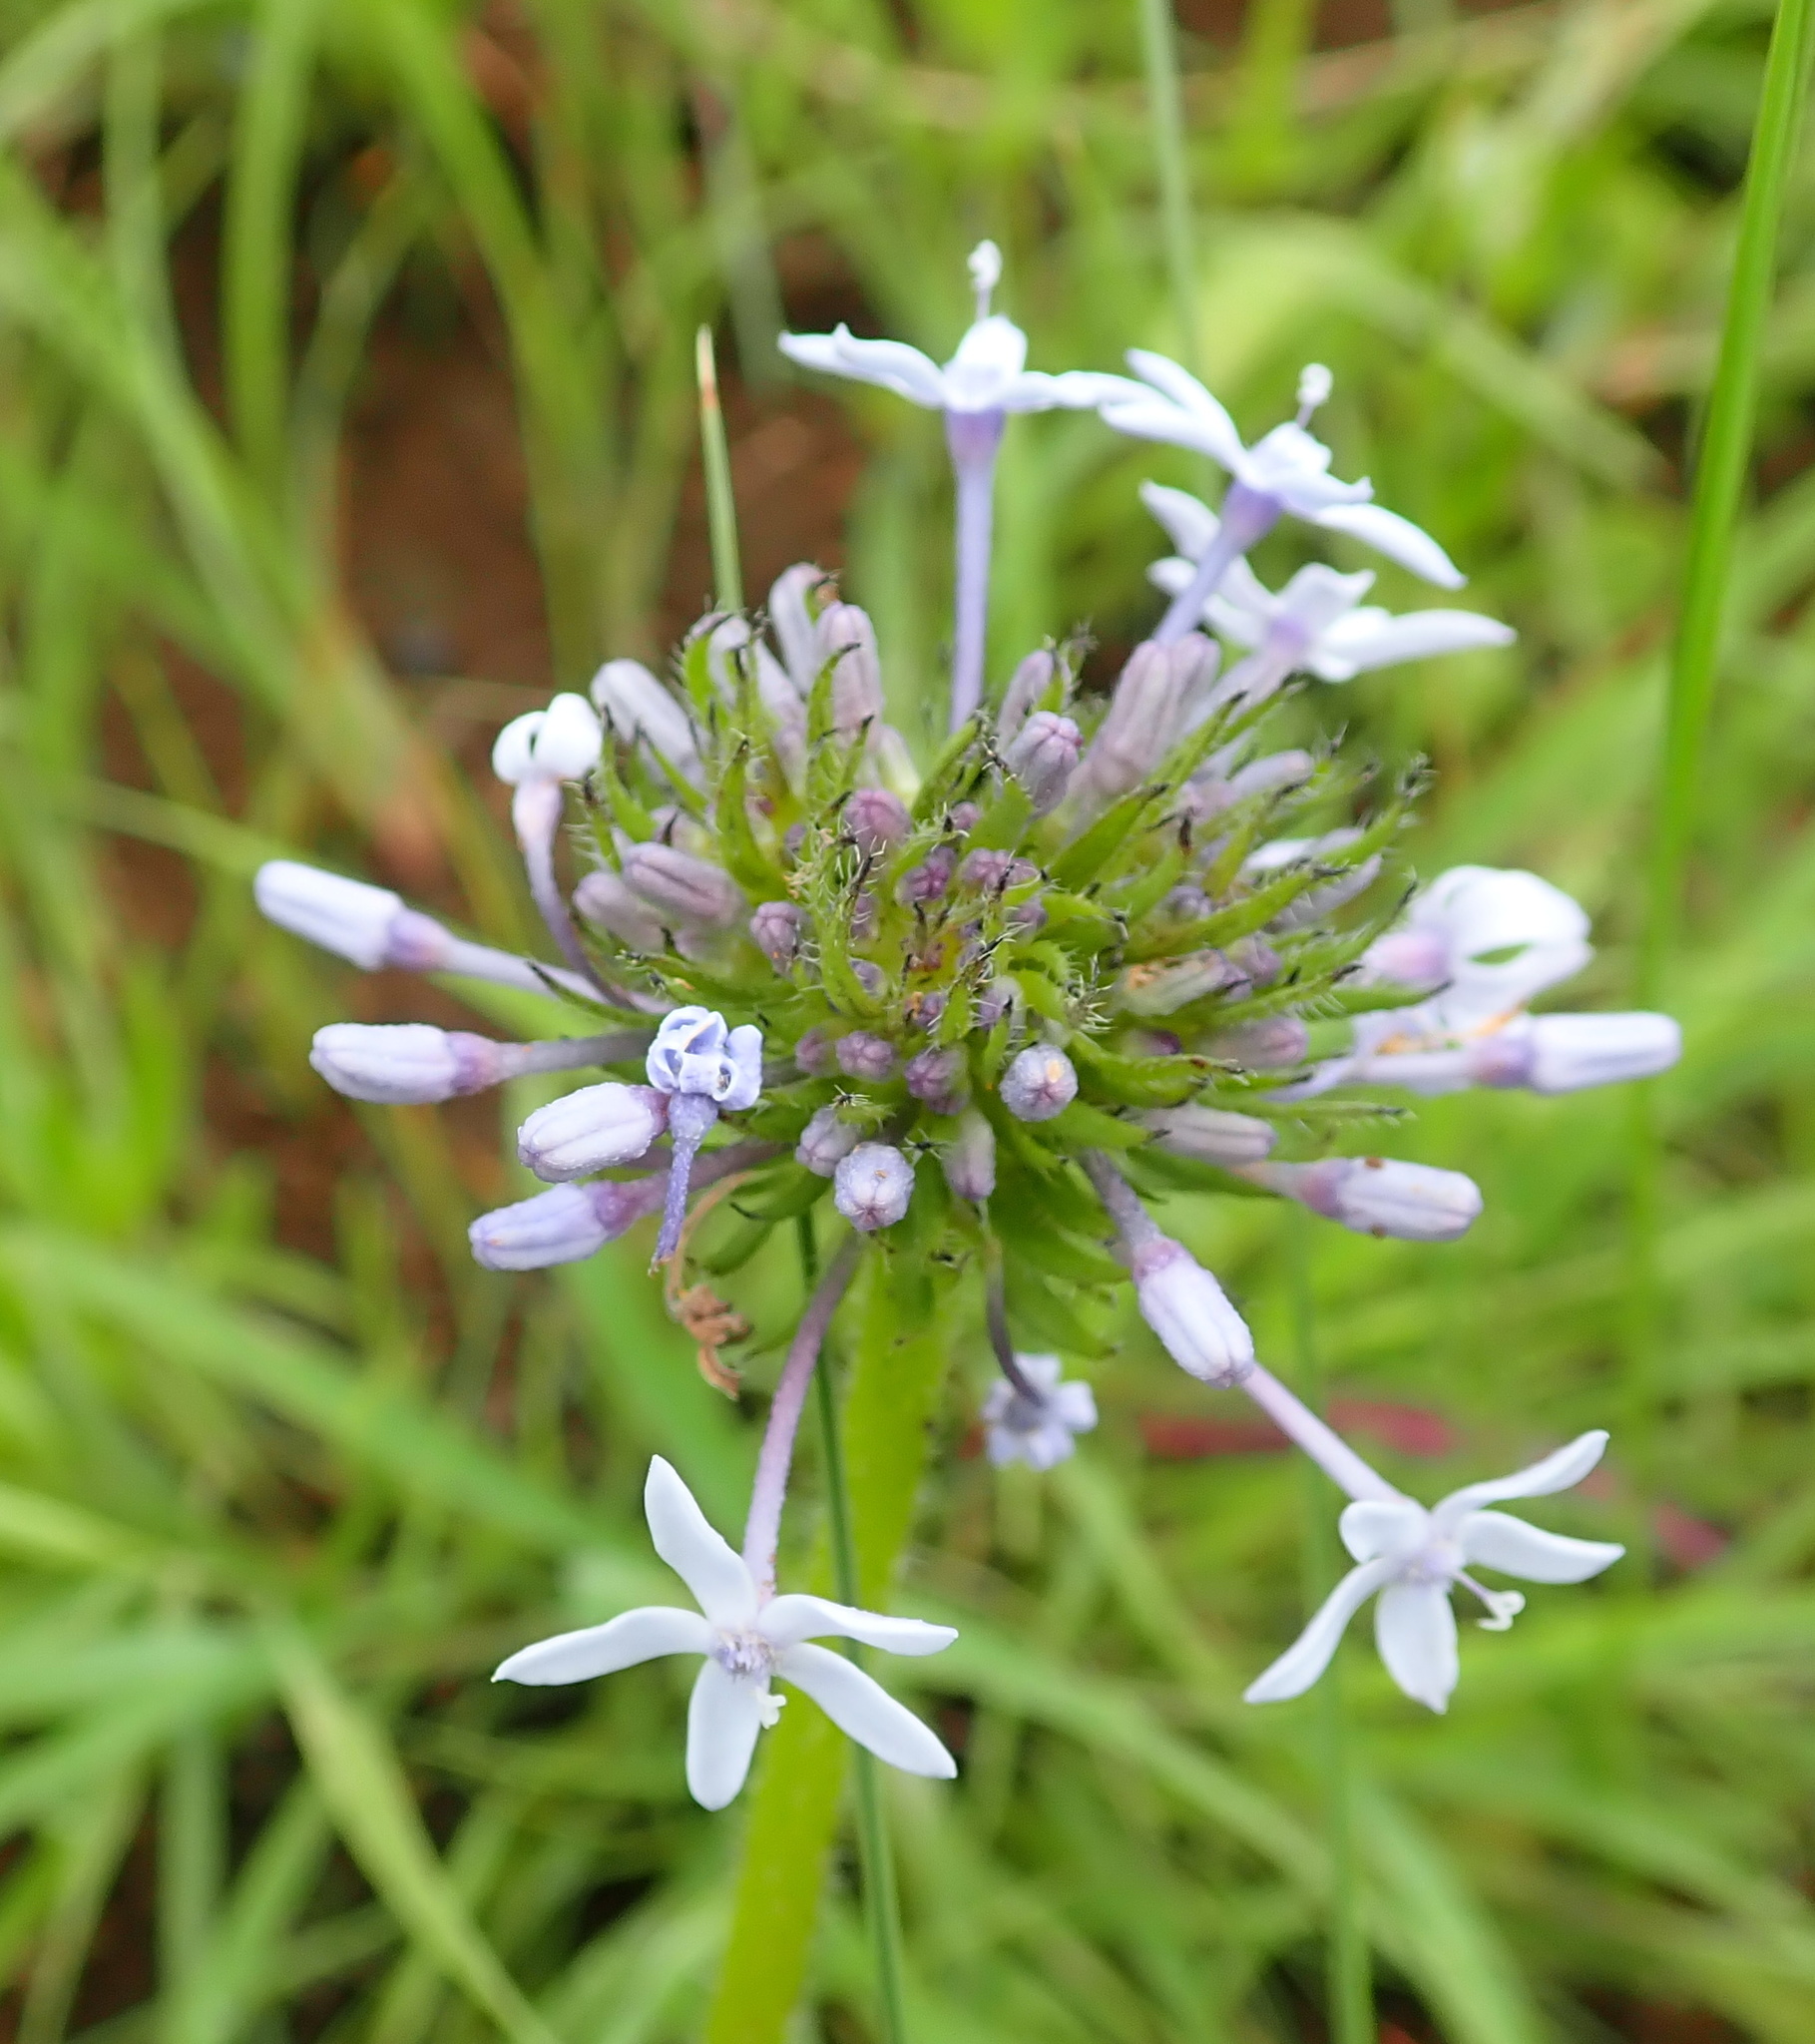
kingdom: Plantae
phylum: Tracheophyta
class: Magnoliopsida
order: Gentianales
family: Rubiaceae
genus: Pentanisia
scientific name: Pentanisia prunelloides
